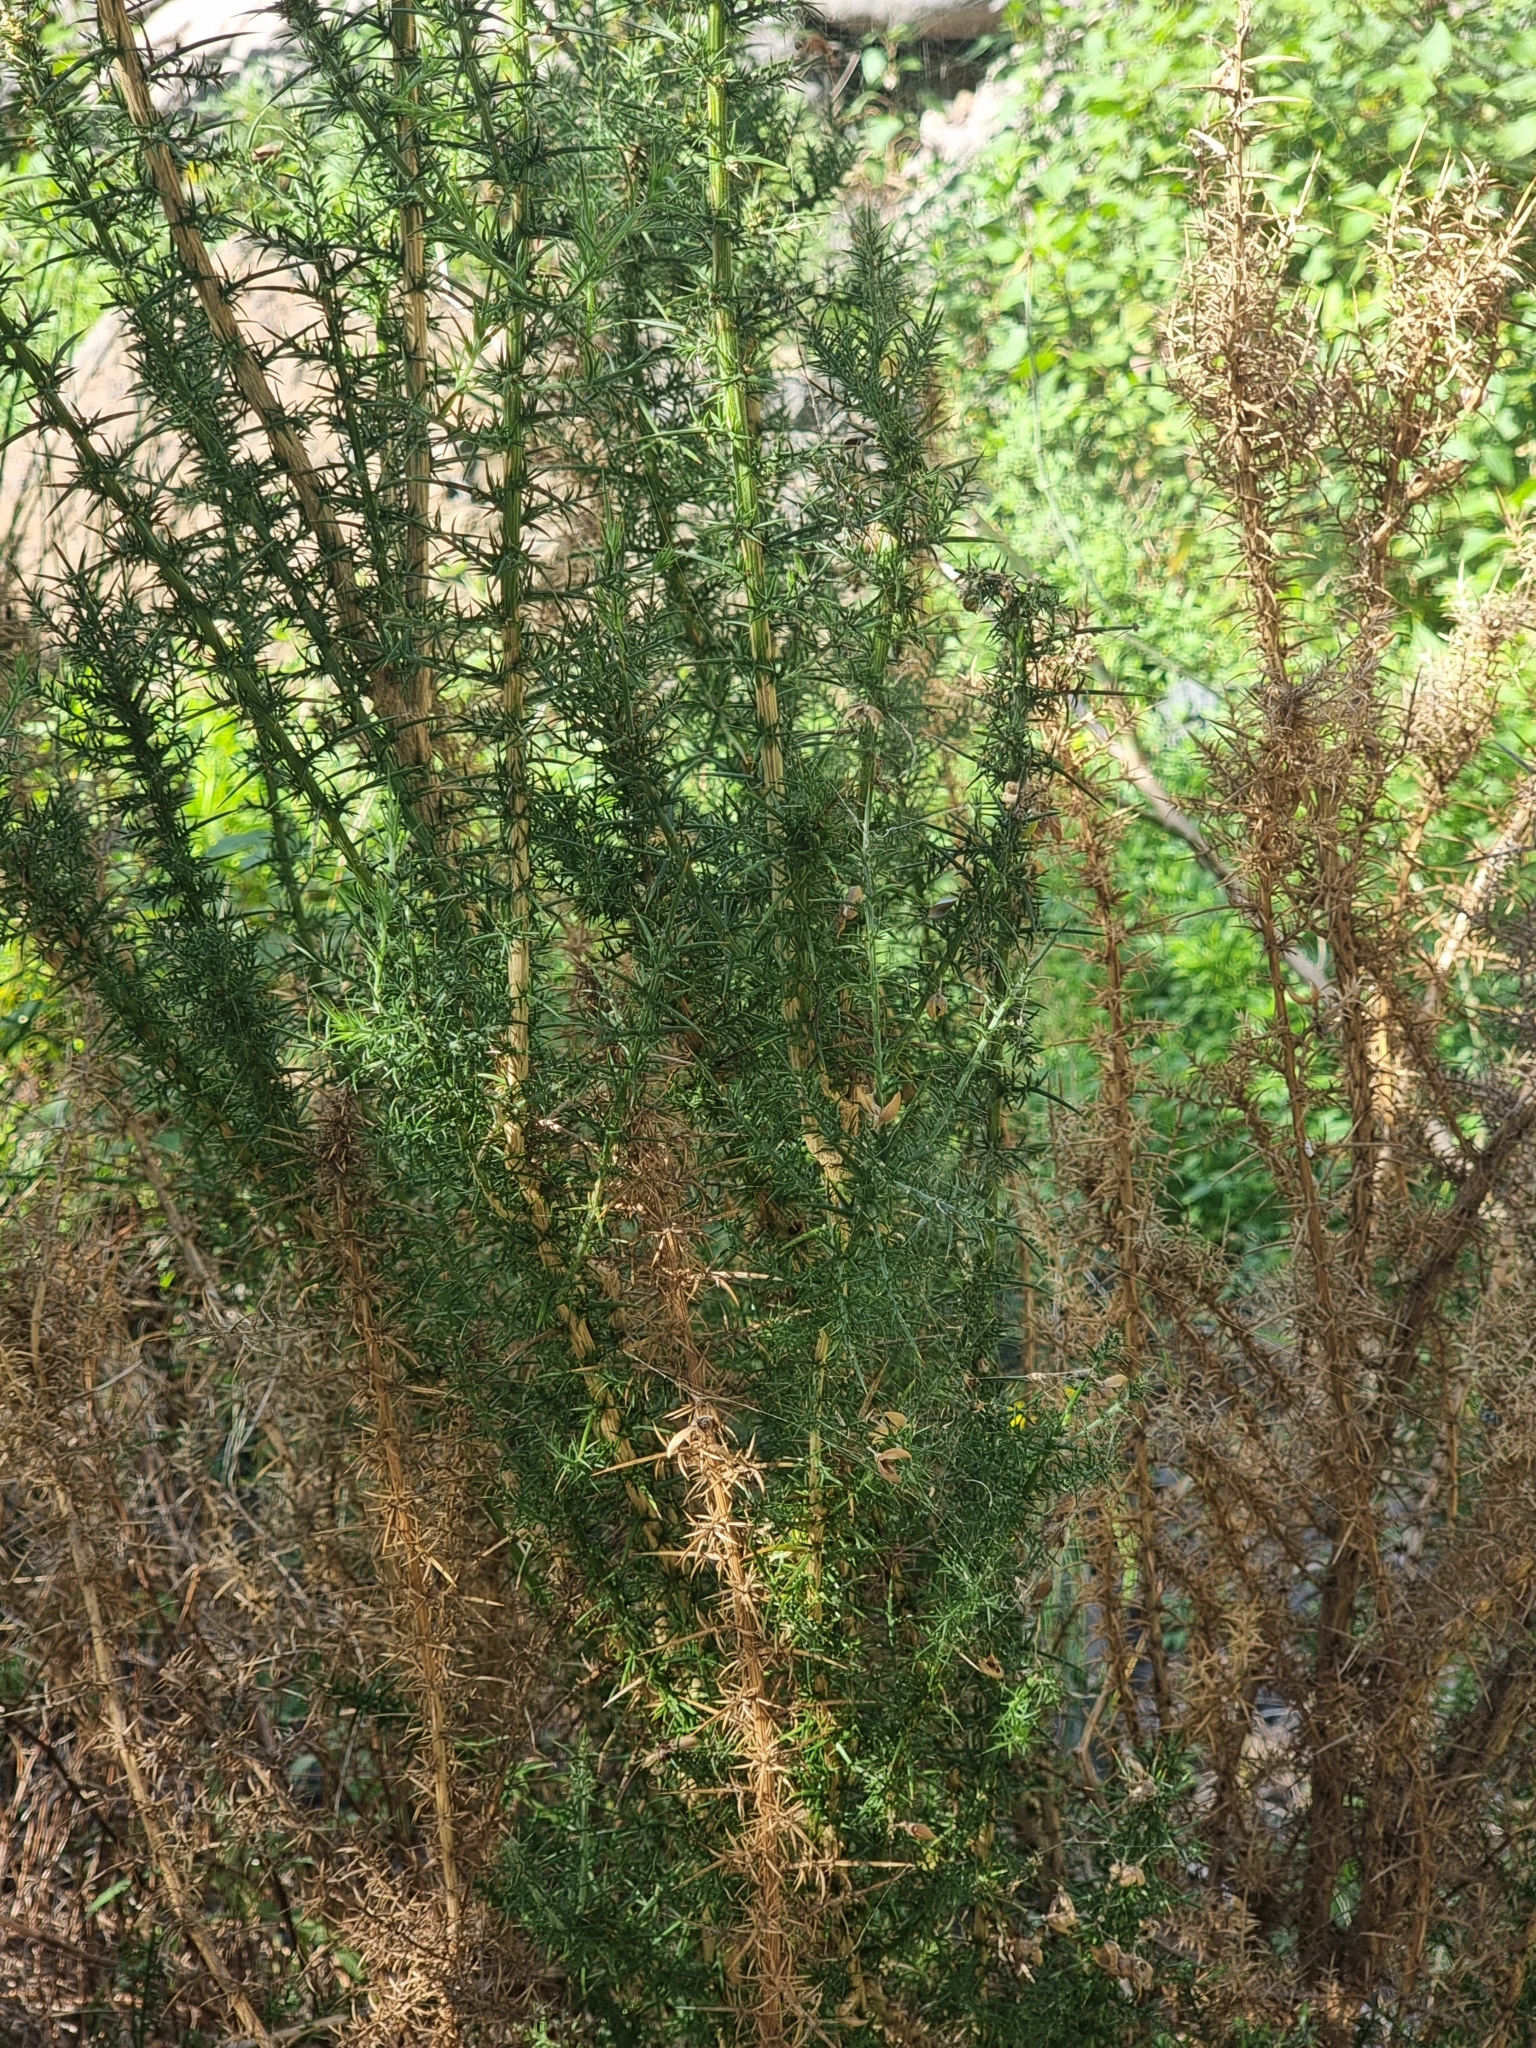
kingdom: Plantae
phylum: Tracheophyta
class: Magnoliopsida
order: Fabales
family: Fabaceae
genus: Ulex
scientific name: Ulex europaeus
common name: Common gorse
